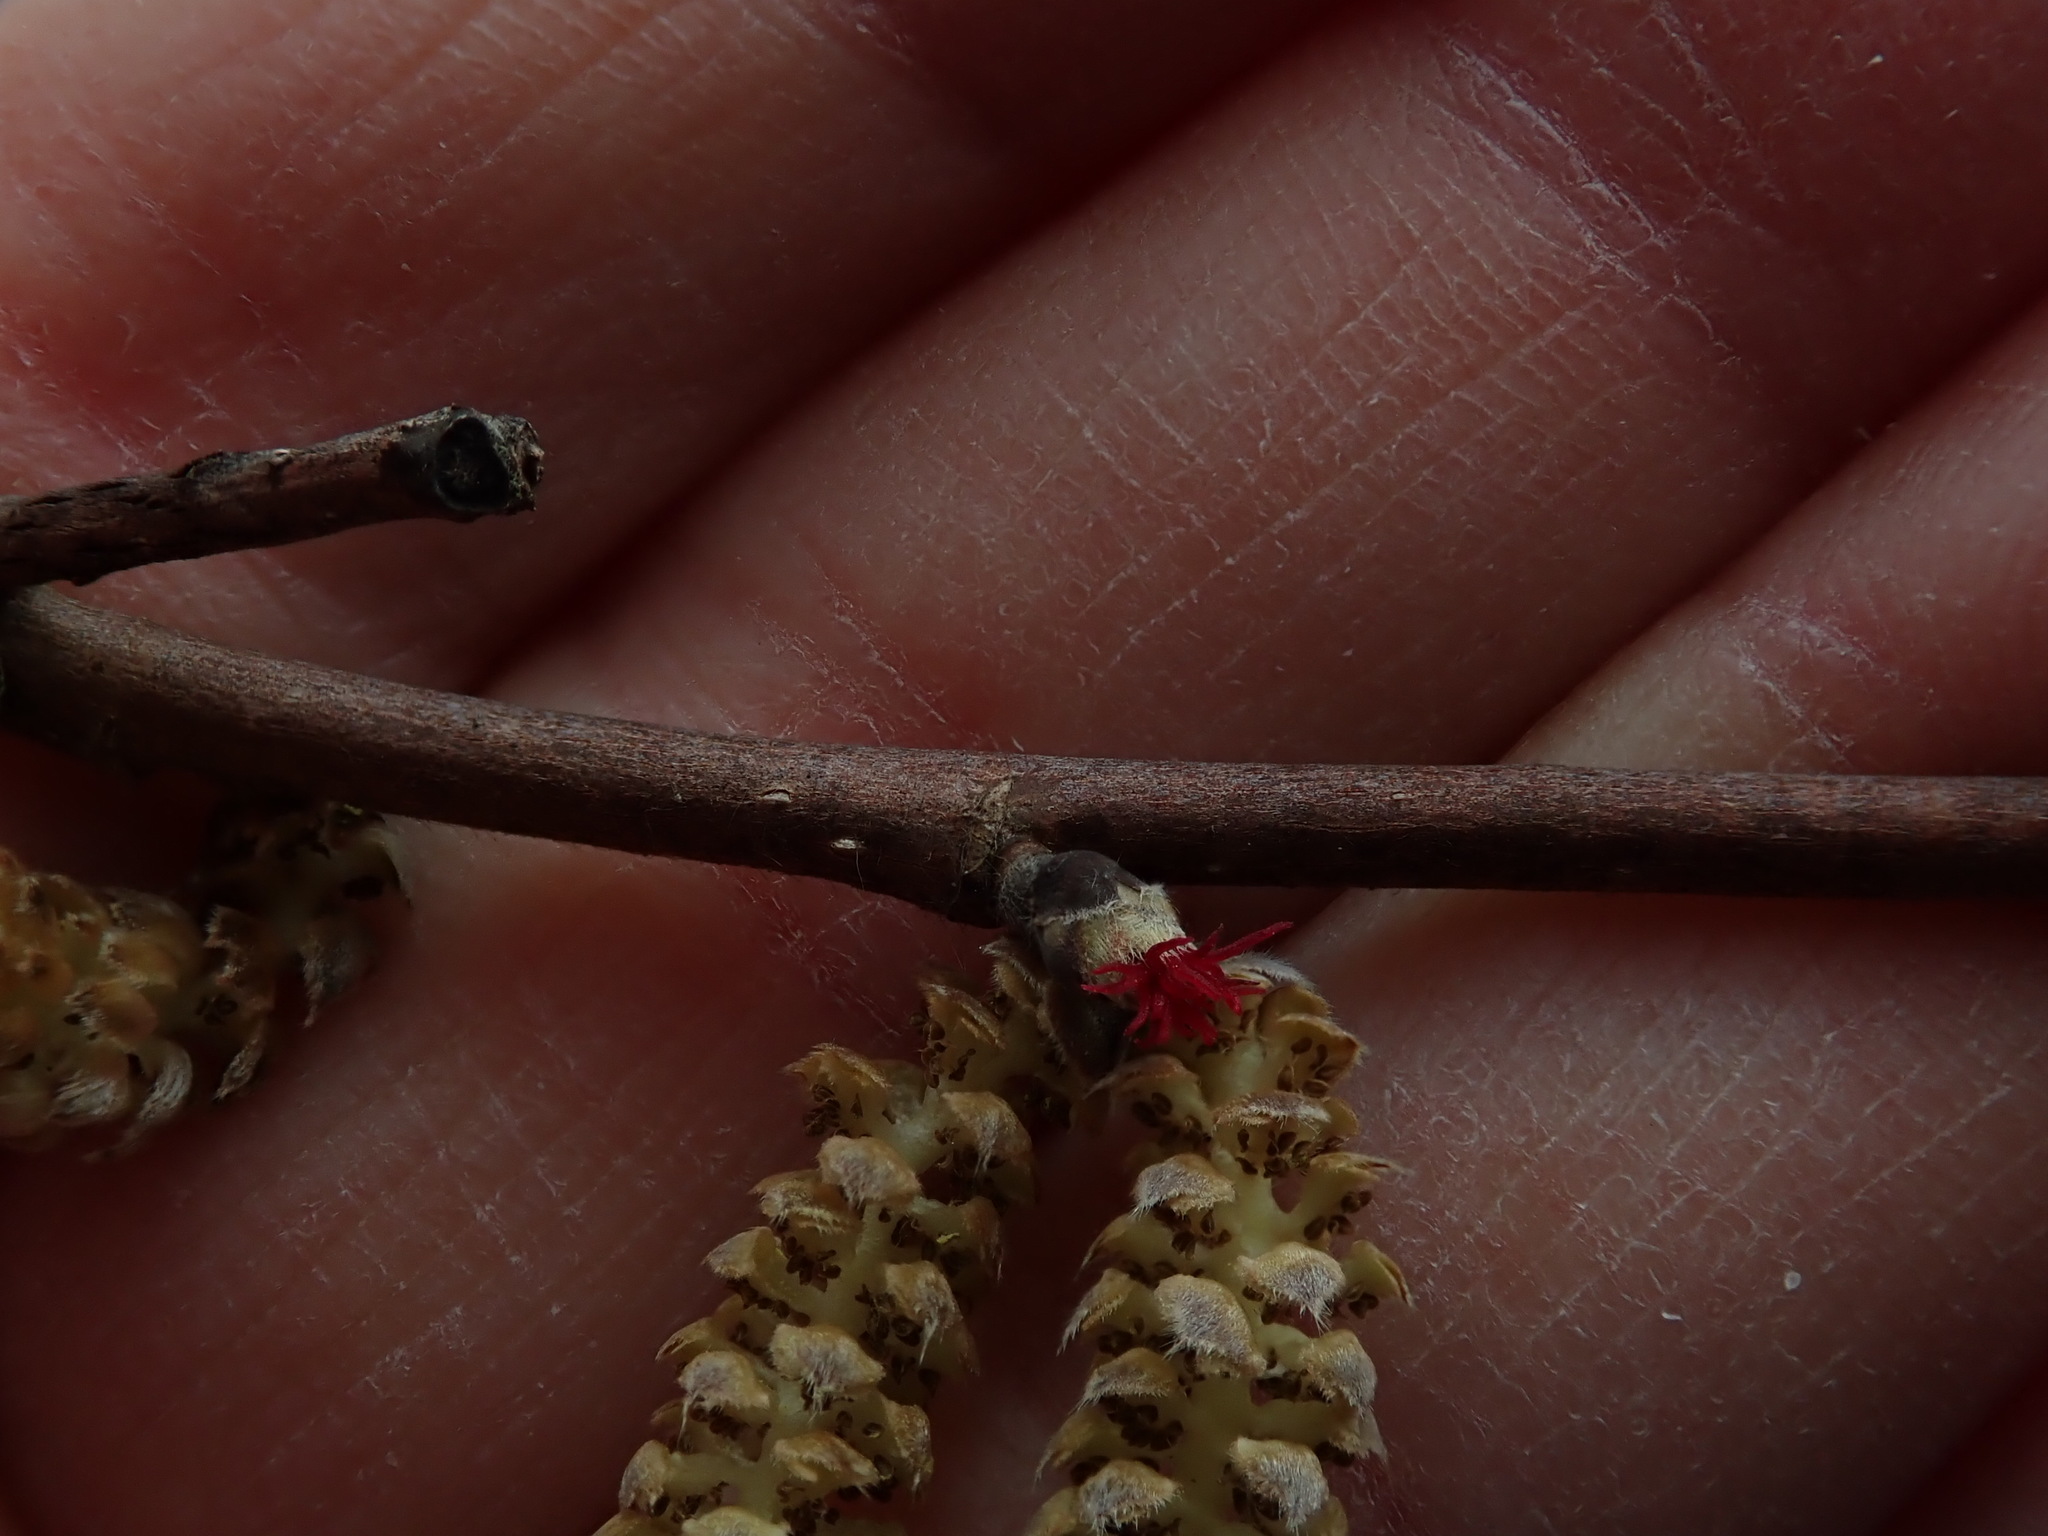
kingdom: Plantae
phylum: Tracheophyta
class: Magnoliopsida
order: Fagales
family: Betulaceae
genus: Corylus
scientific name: Corylus cornuta
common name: Beaked hazel
